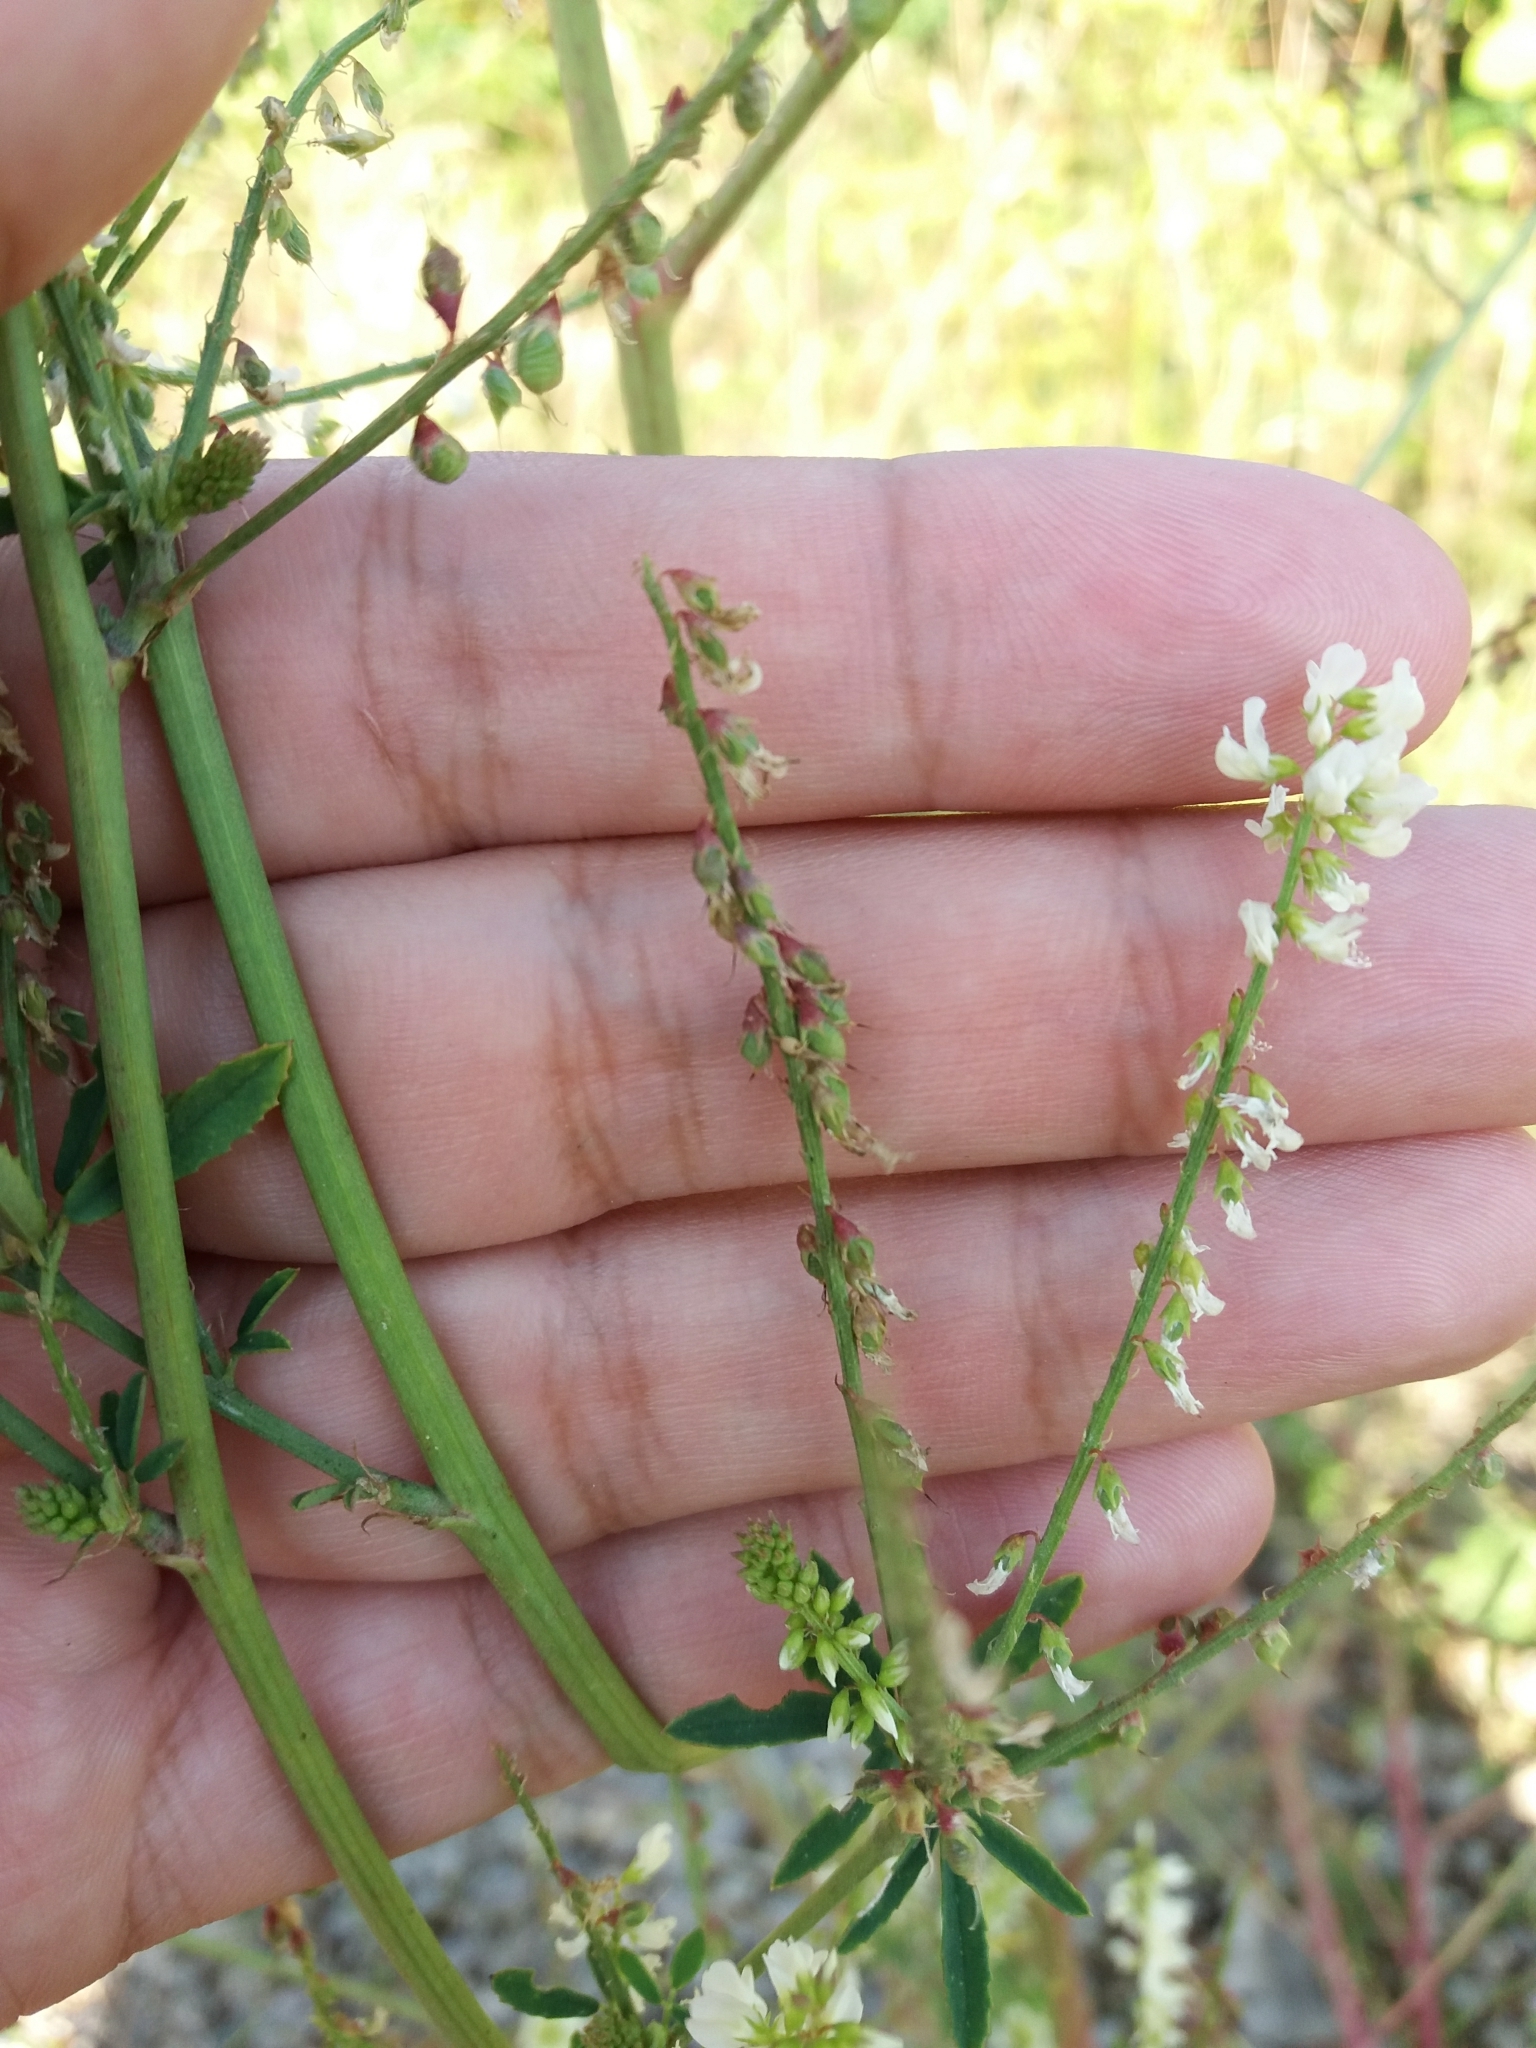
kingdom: Plantae
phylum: Tracheophyta
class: Magnoliopsida
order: Fabales
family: Fabaceae
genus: Melilotus
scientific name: Melilotus albus
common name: White melilot
